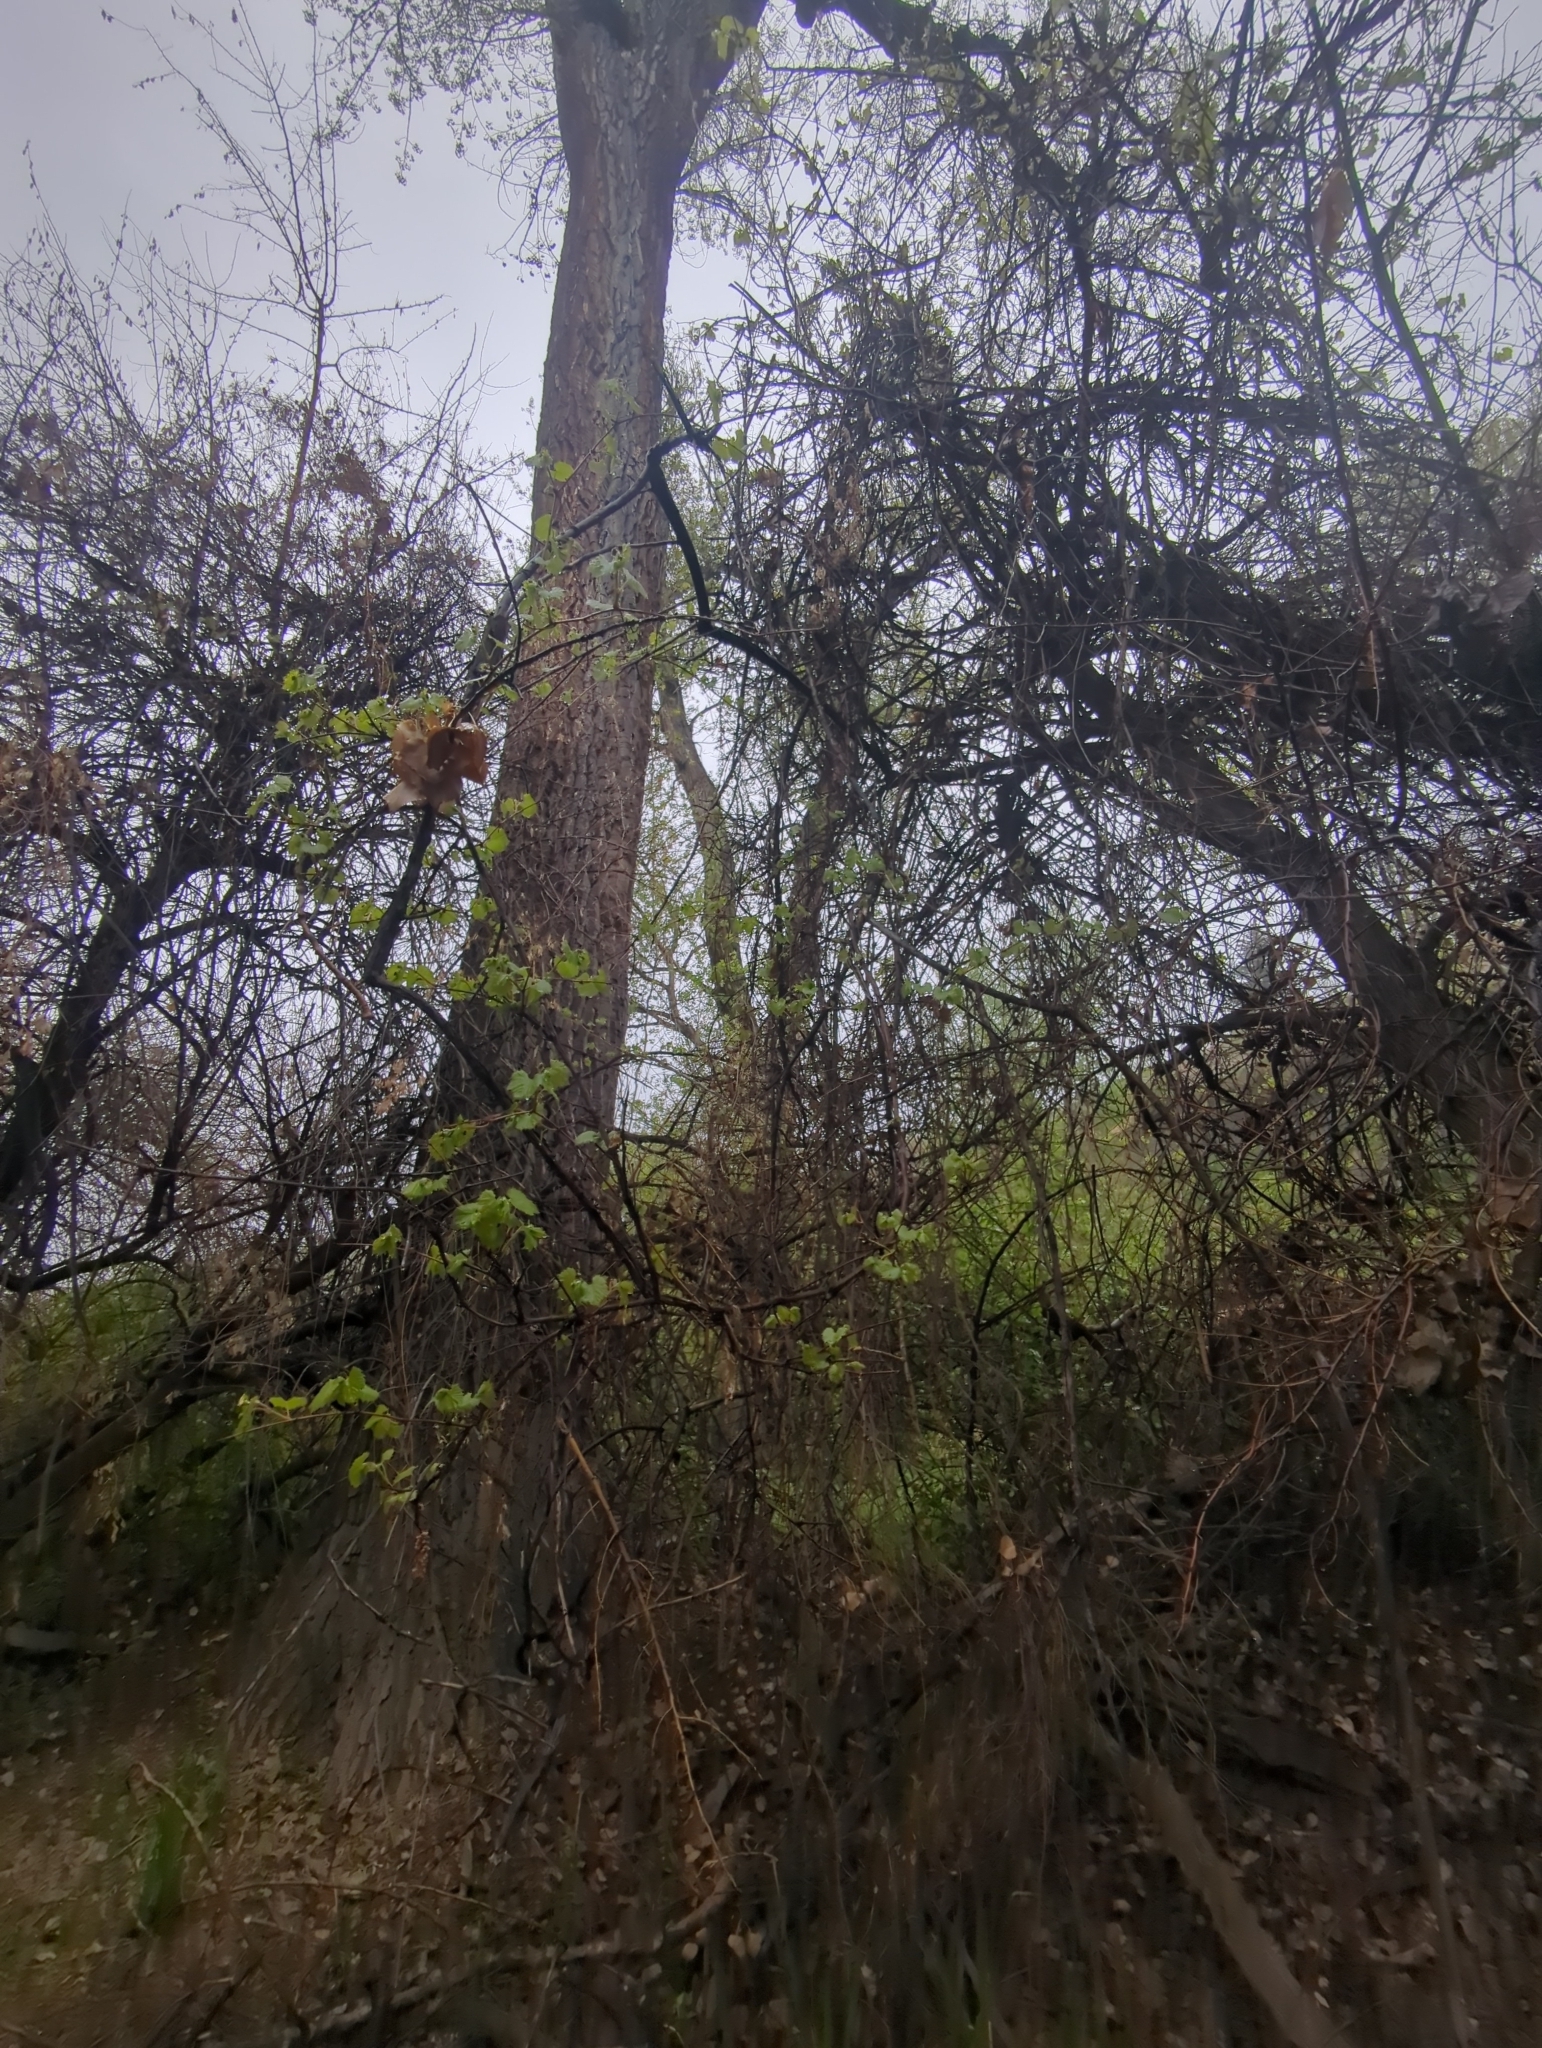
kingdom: Plantae
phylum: Tracheophyta
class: Magnoliopsida
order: Vitales
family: Vitaceae
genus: Vitis
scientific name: Vitis riparia
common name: Frost grape
